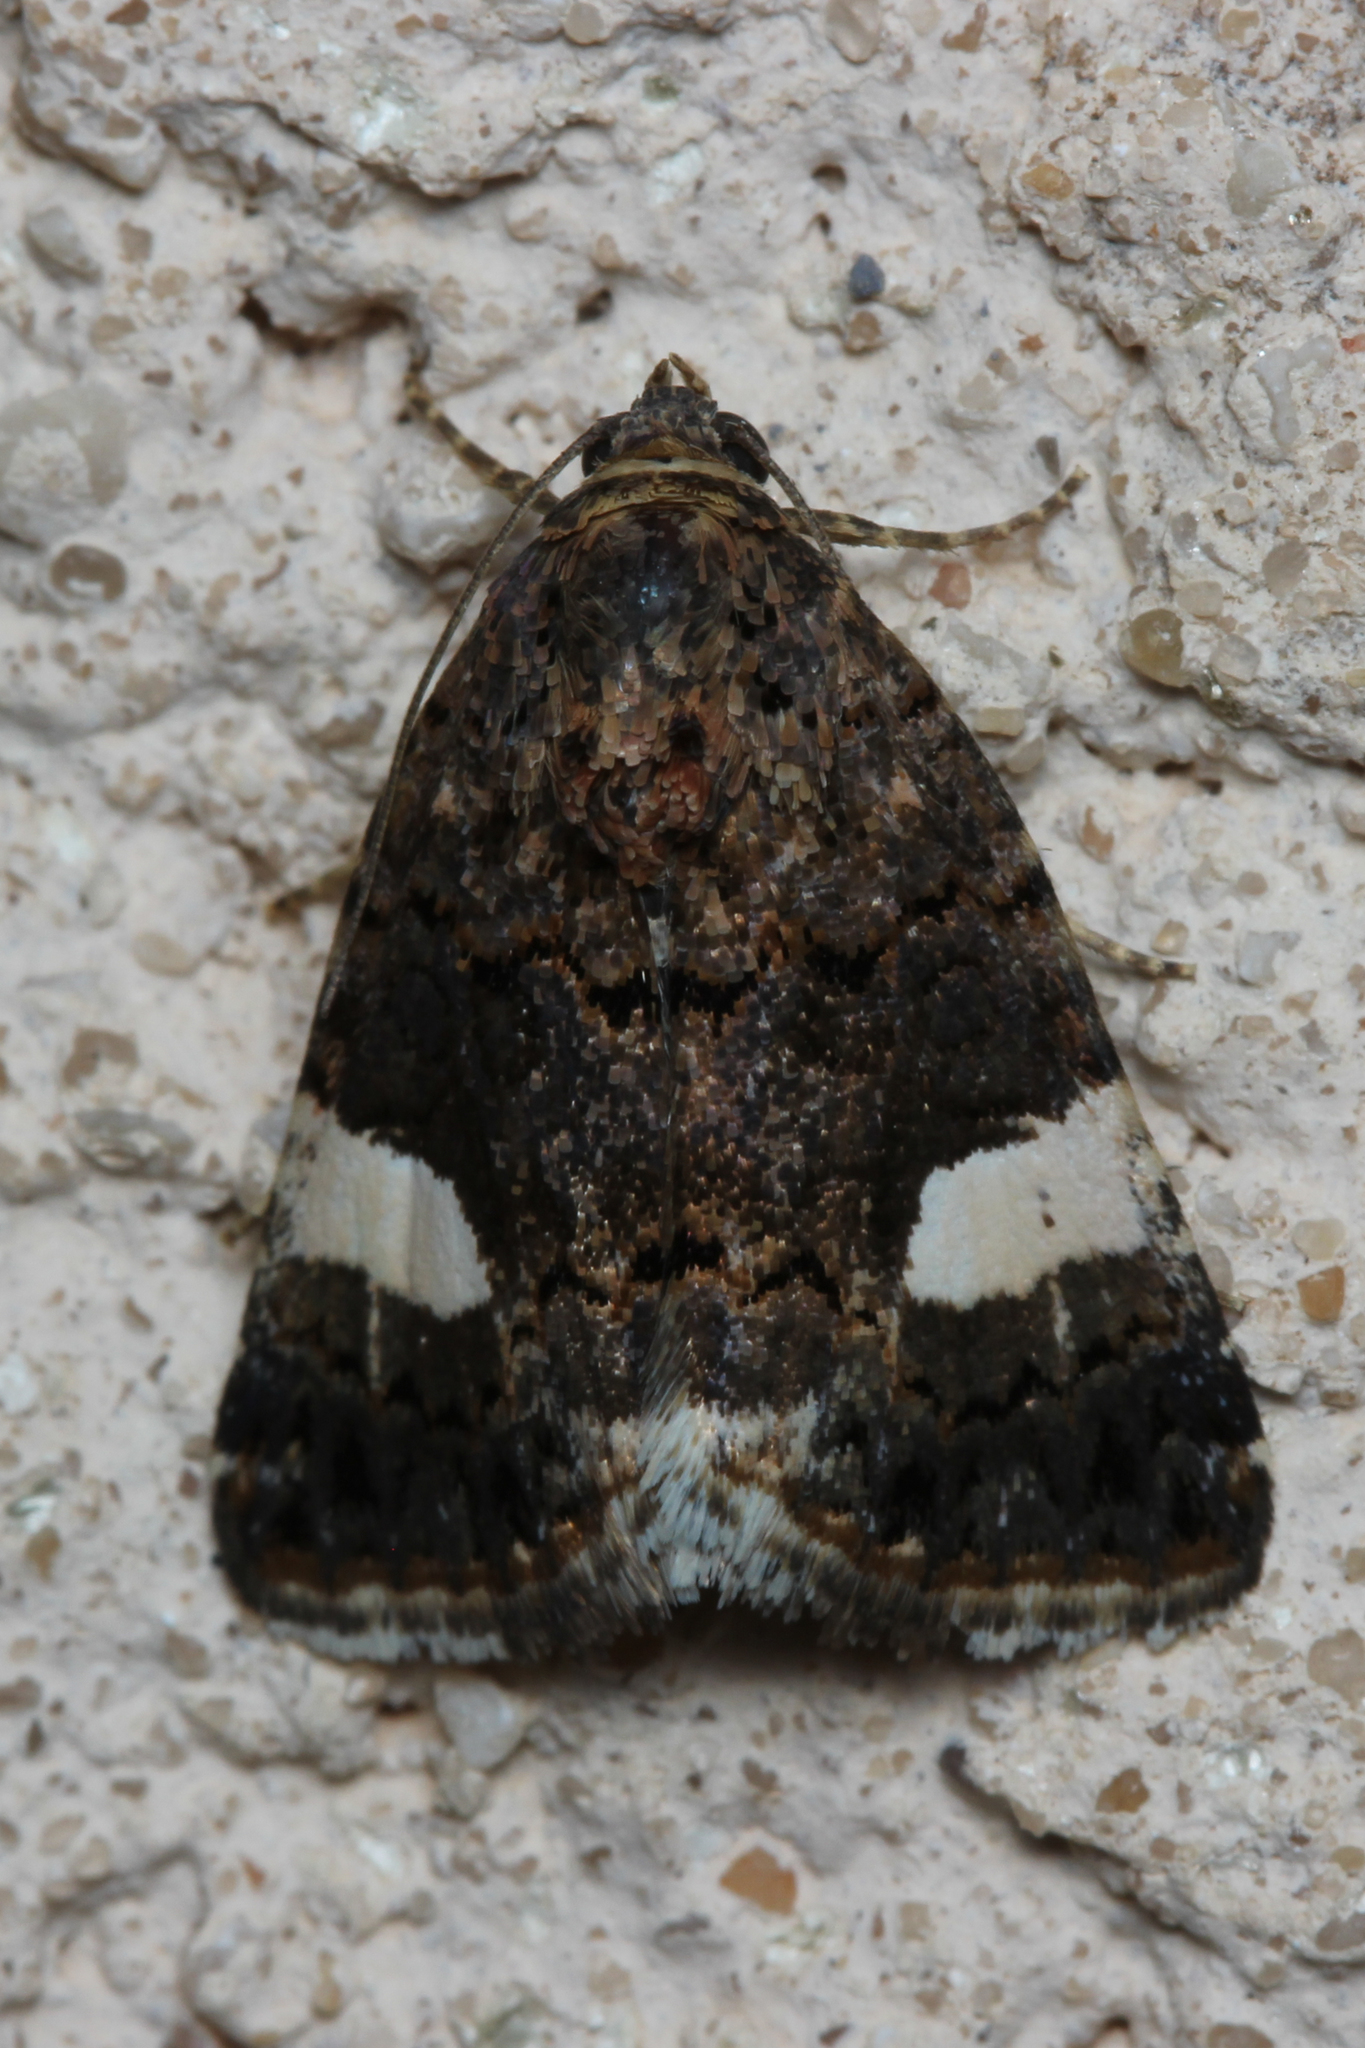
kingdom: Animalia
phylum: Arthropoda
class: Insecta
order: Lepidoptera
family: Erebidae
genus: Tyta
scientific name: Tyta luctuosa
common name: Four-spotted
